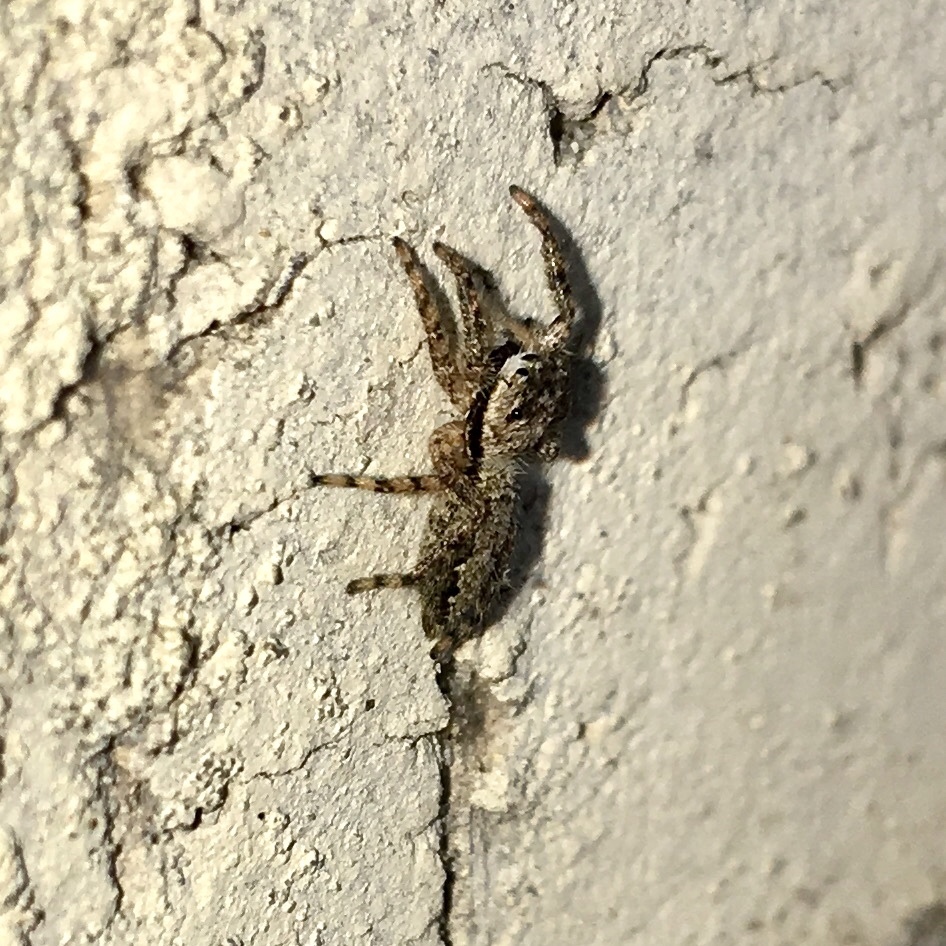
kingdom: Animalia
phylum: Arthropoda
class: Arachnida
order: Araneae
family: Salticidae
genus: Platycryptus
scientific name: Platycryptus undatus
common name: Tan jumping spider
